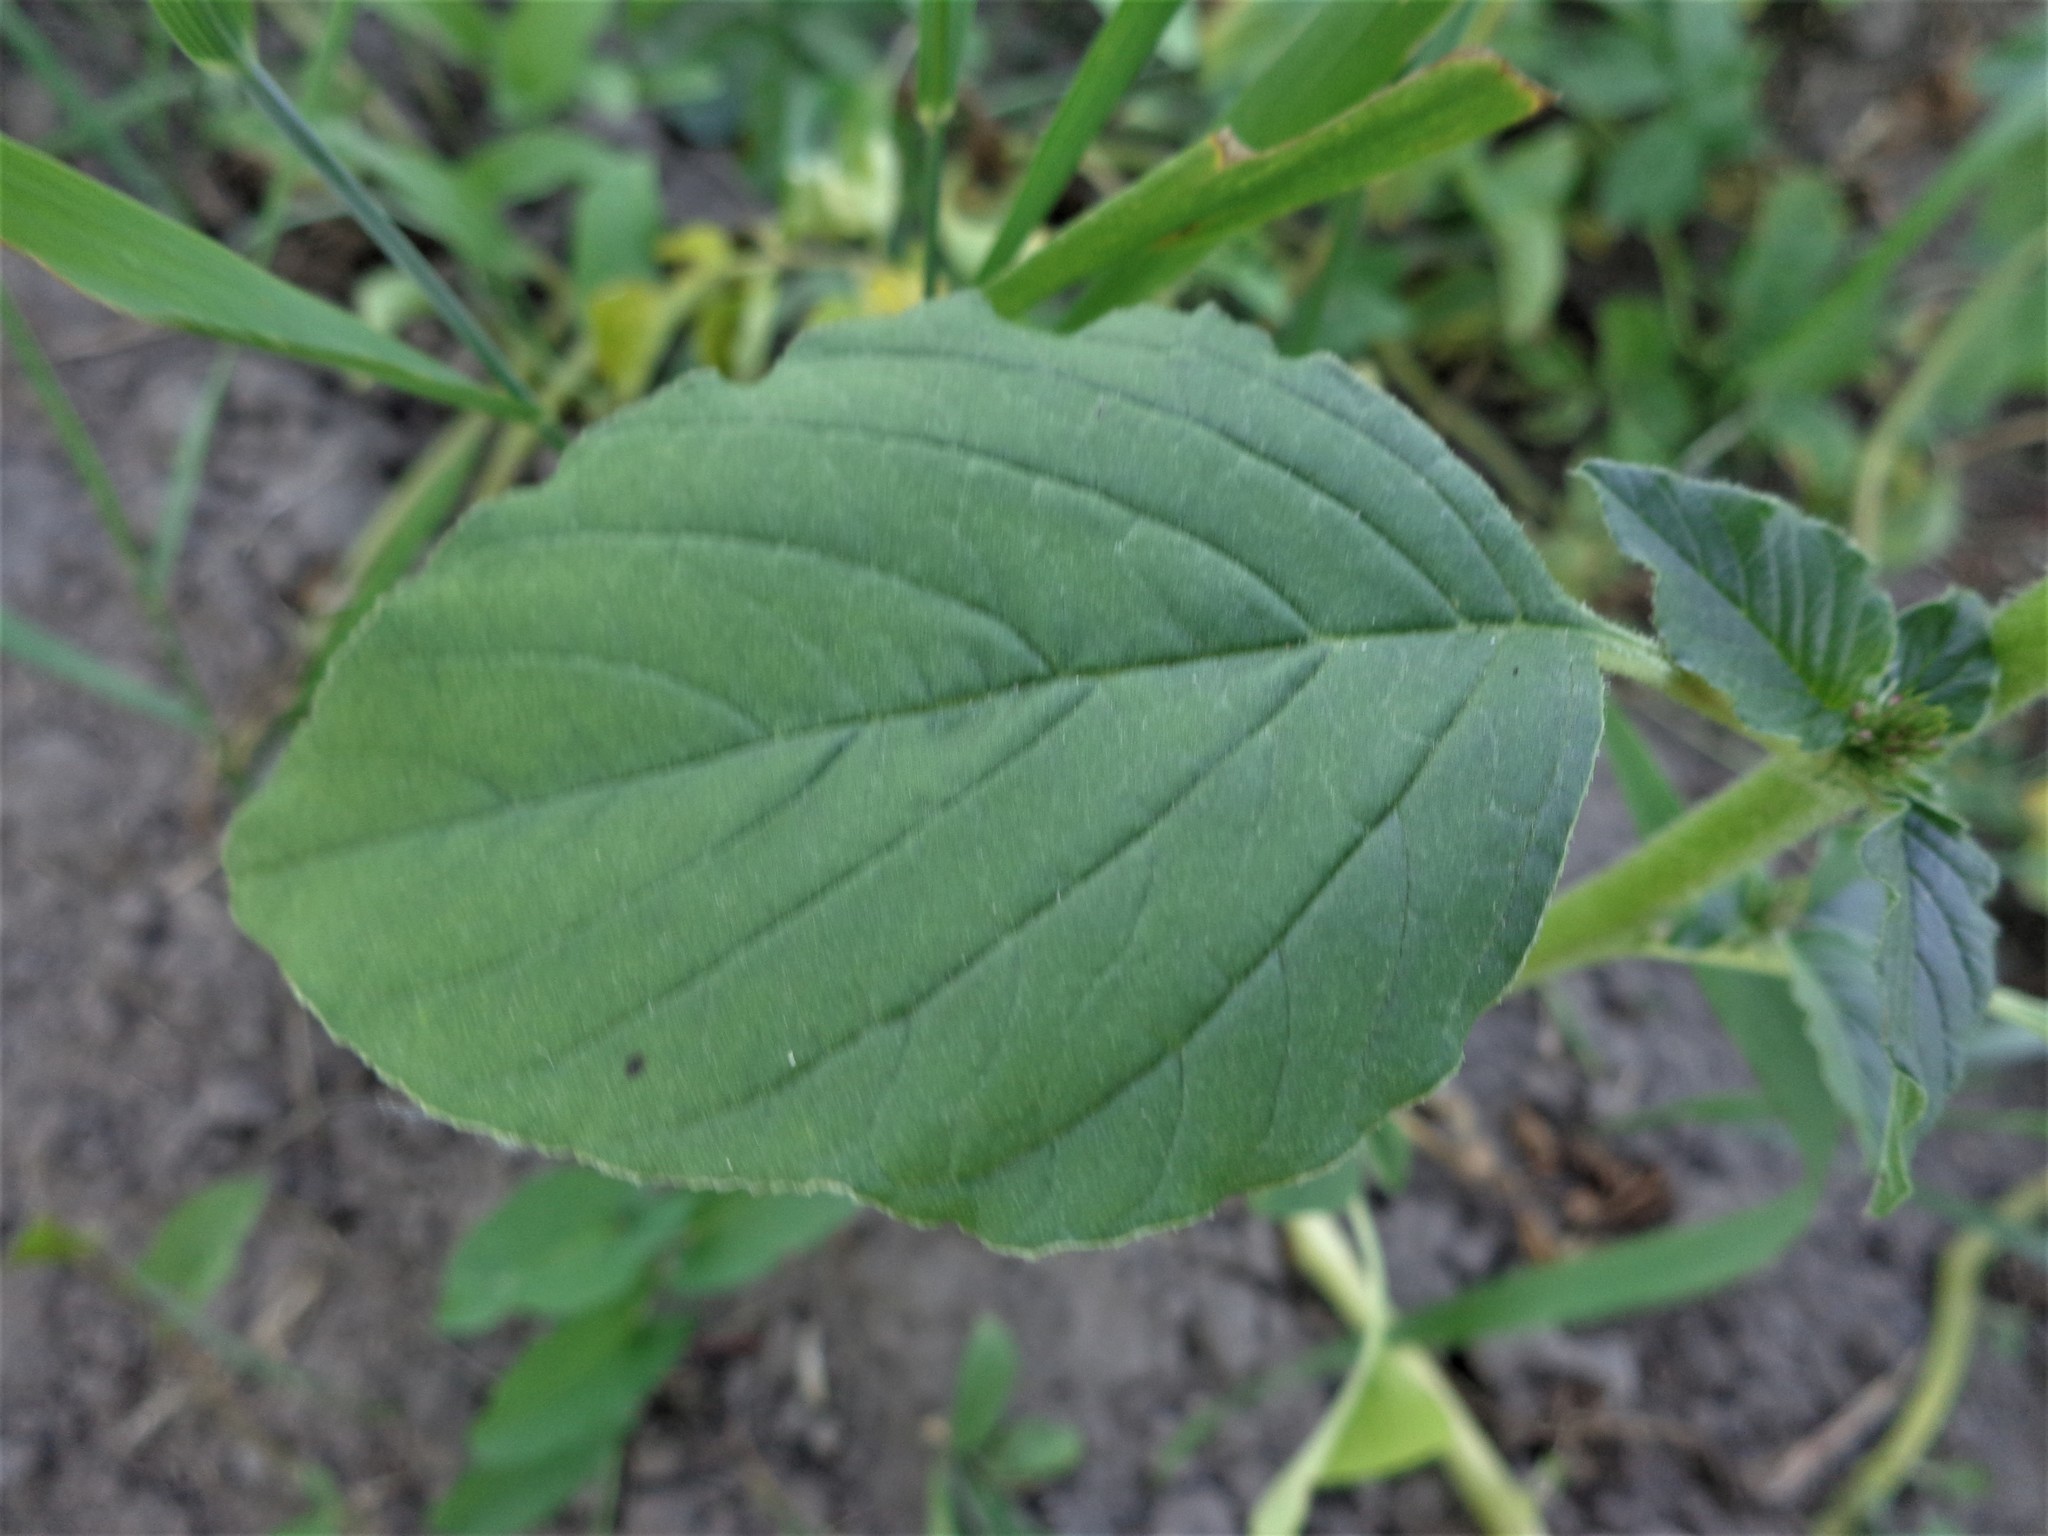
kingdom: Plantae
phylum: Tracheophyta
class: Magnoliopsida
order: Caryophyllales
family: Amaranthaceae
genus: Amaranthus
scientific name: Amaranthus retroflexus
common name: Redroot amaranth
